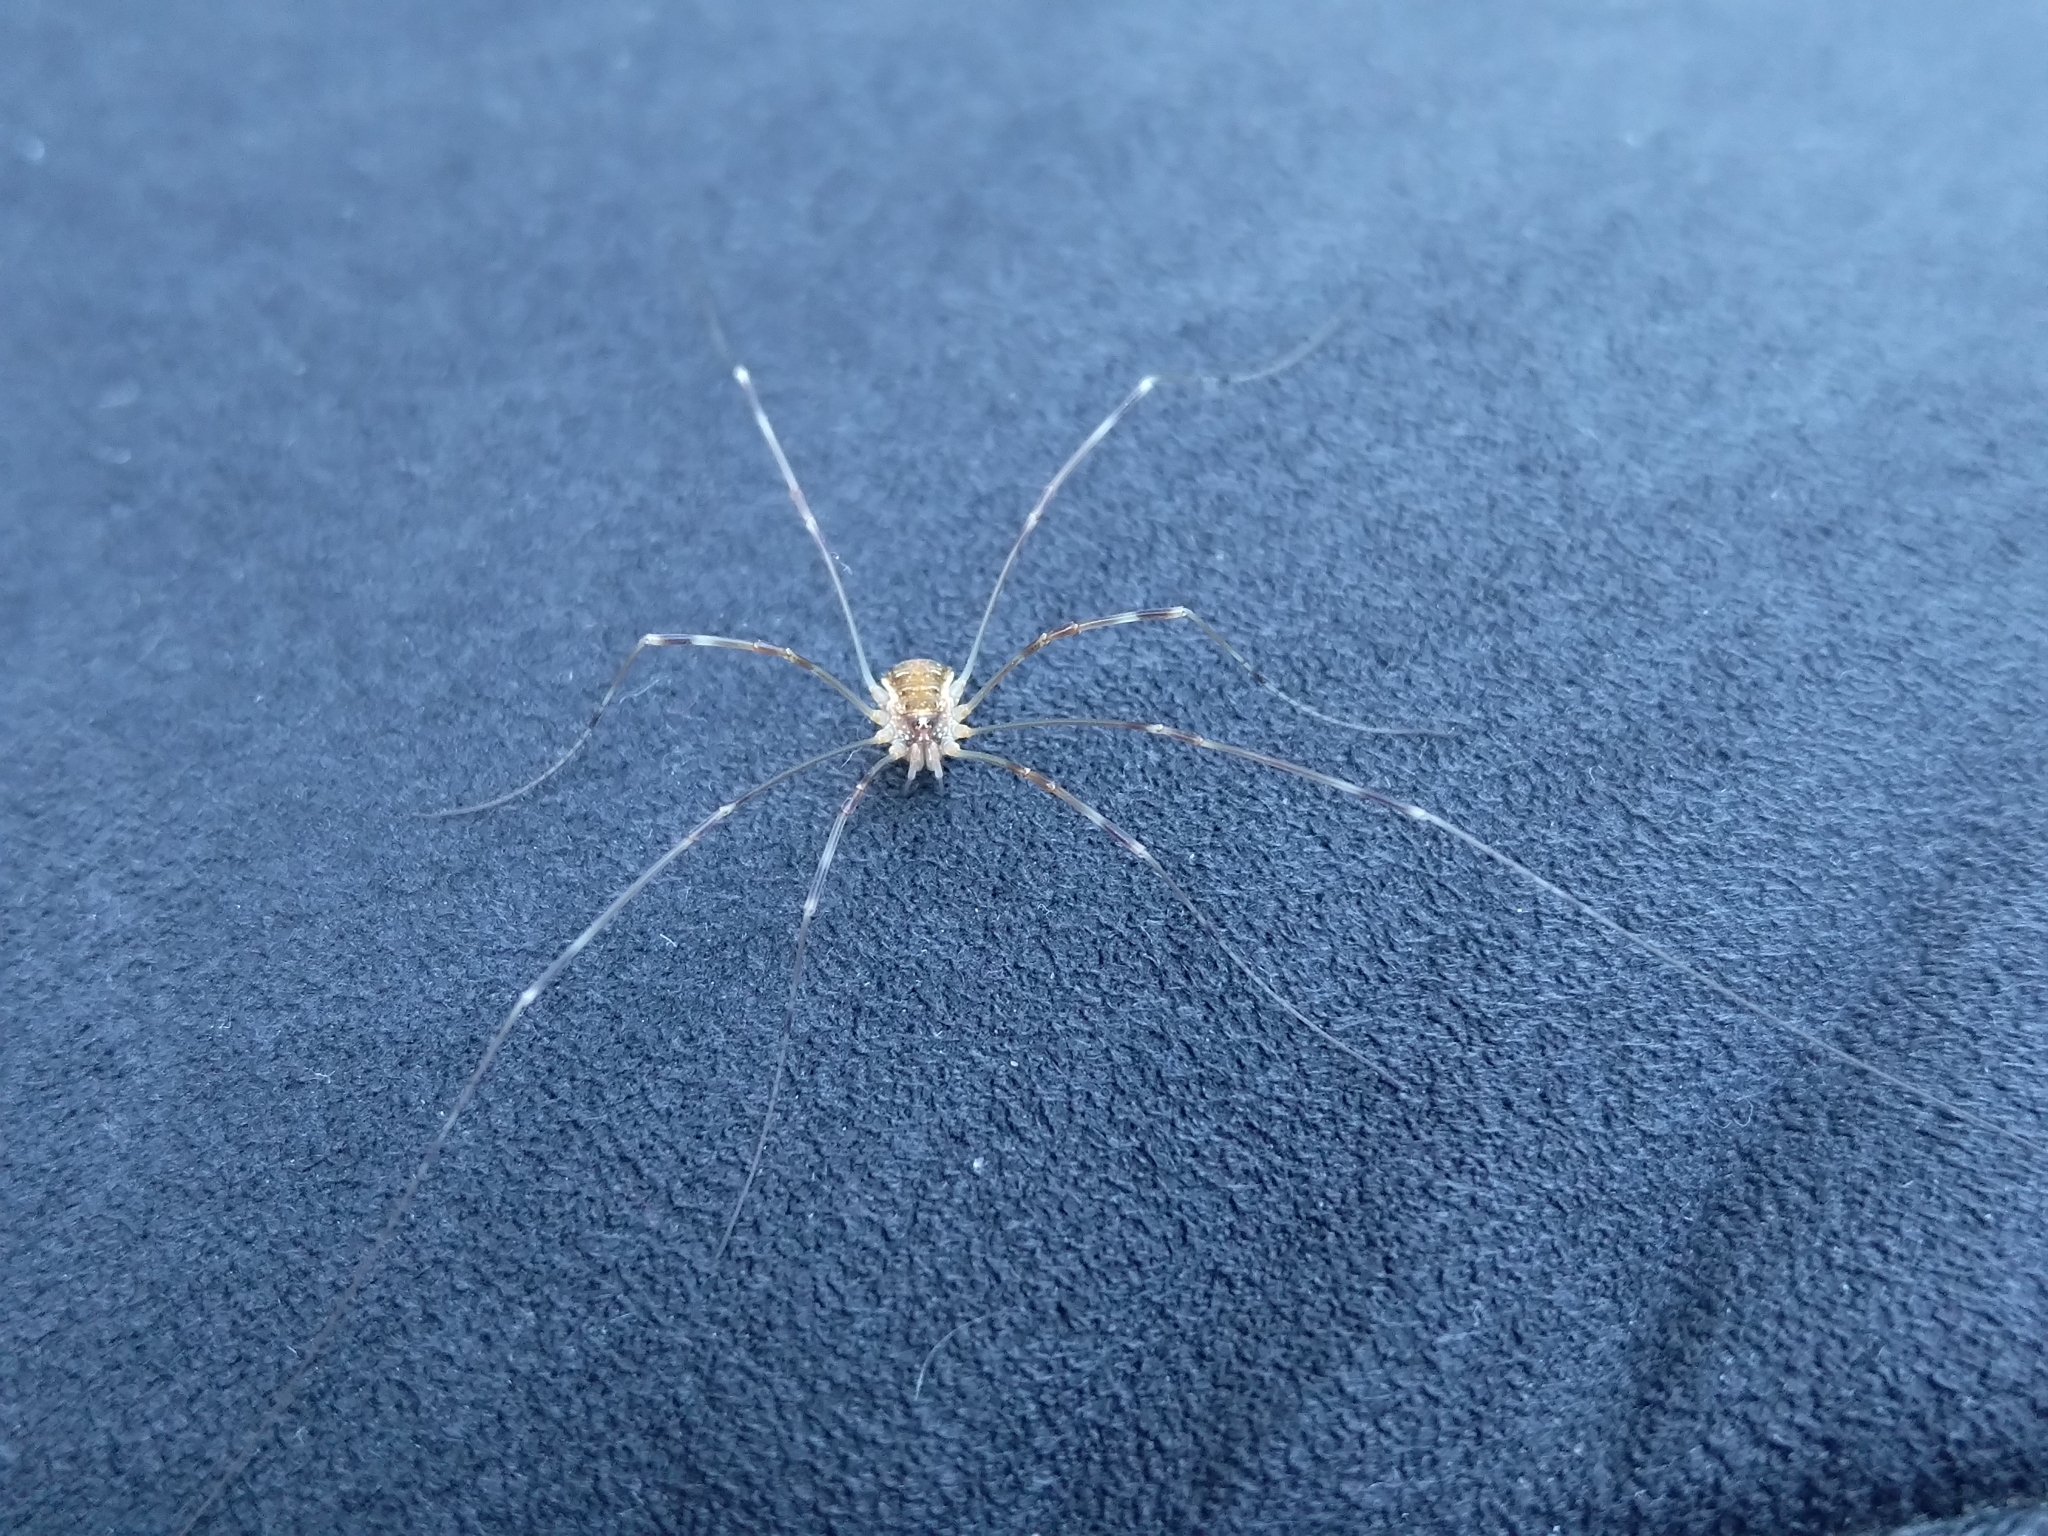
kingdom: Animalia
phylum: Arthropoda
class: Arachnida
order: Opiliones
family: Phalangiidae
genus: Opilio
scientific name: Opilio canestrinii
